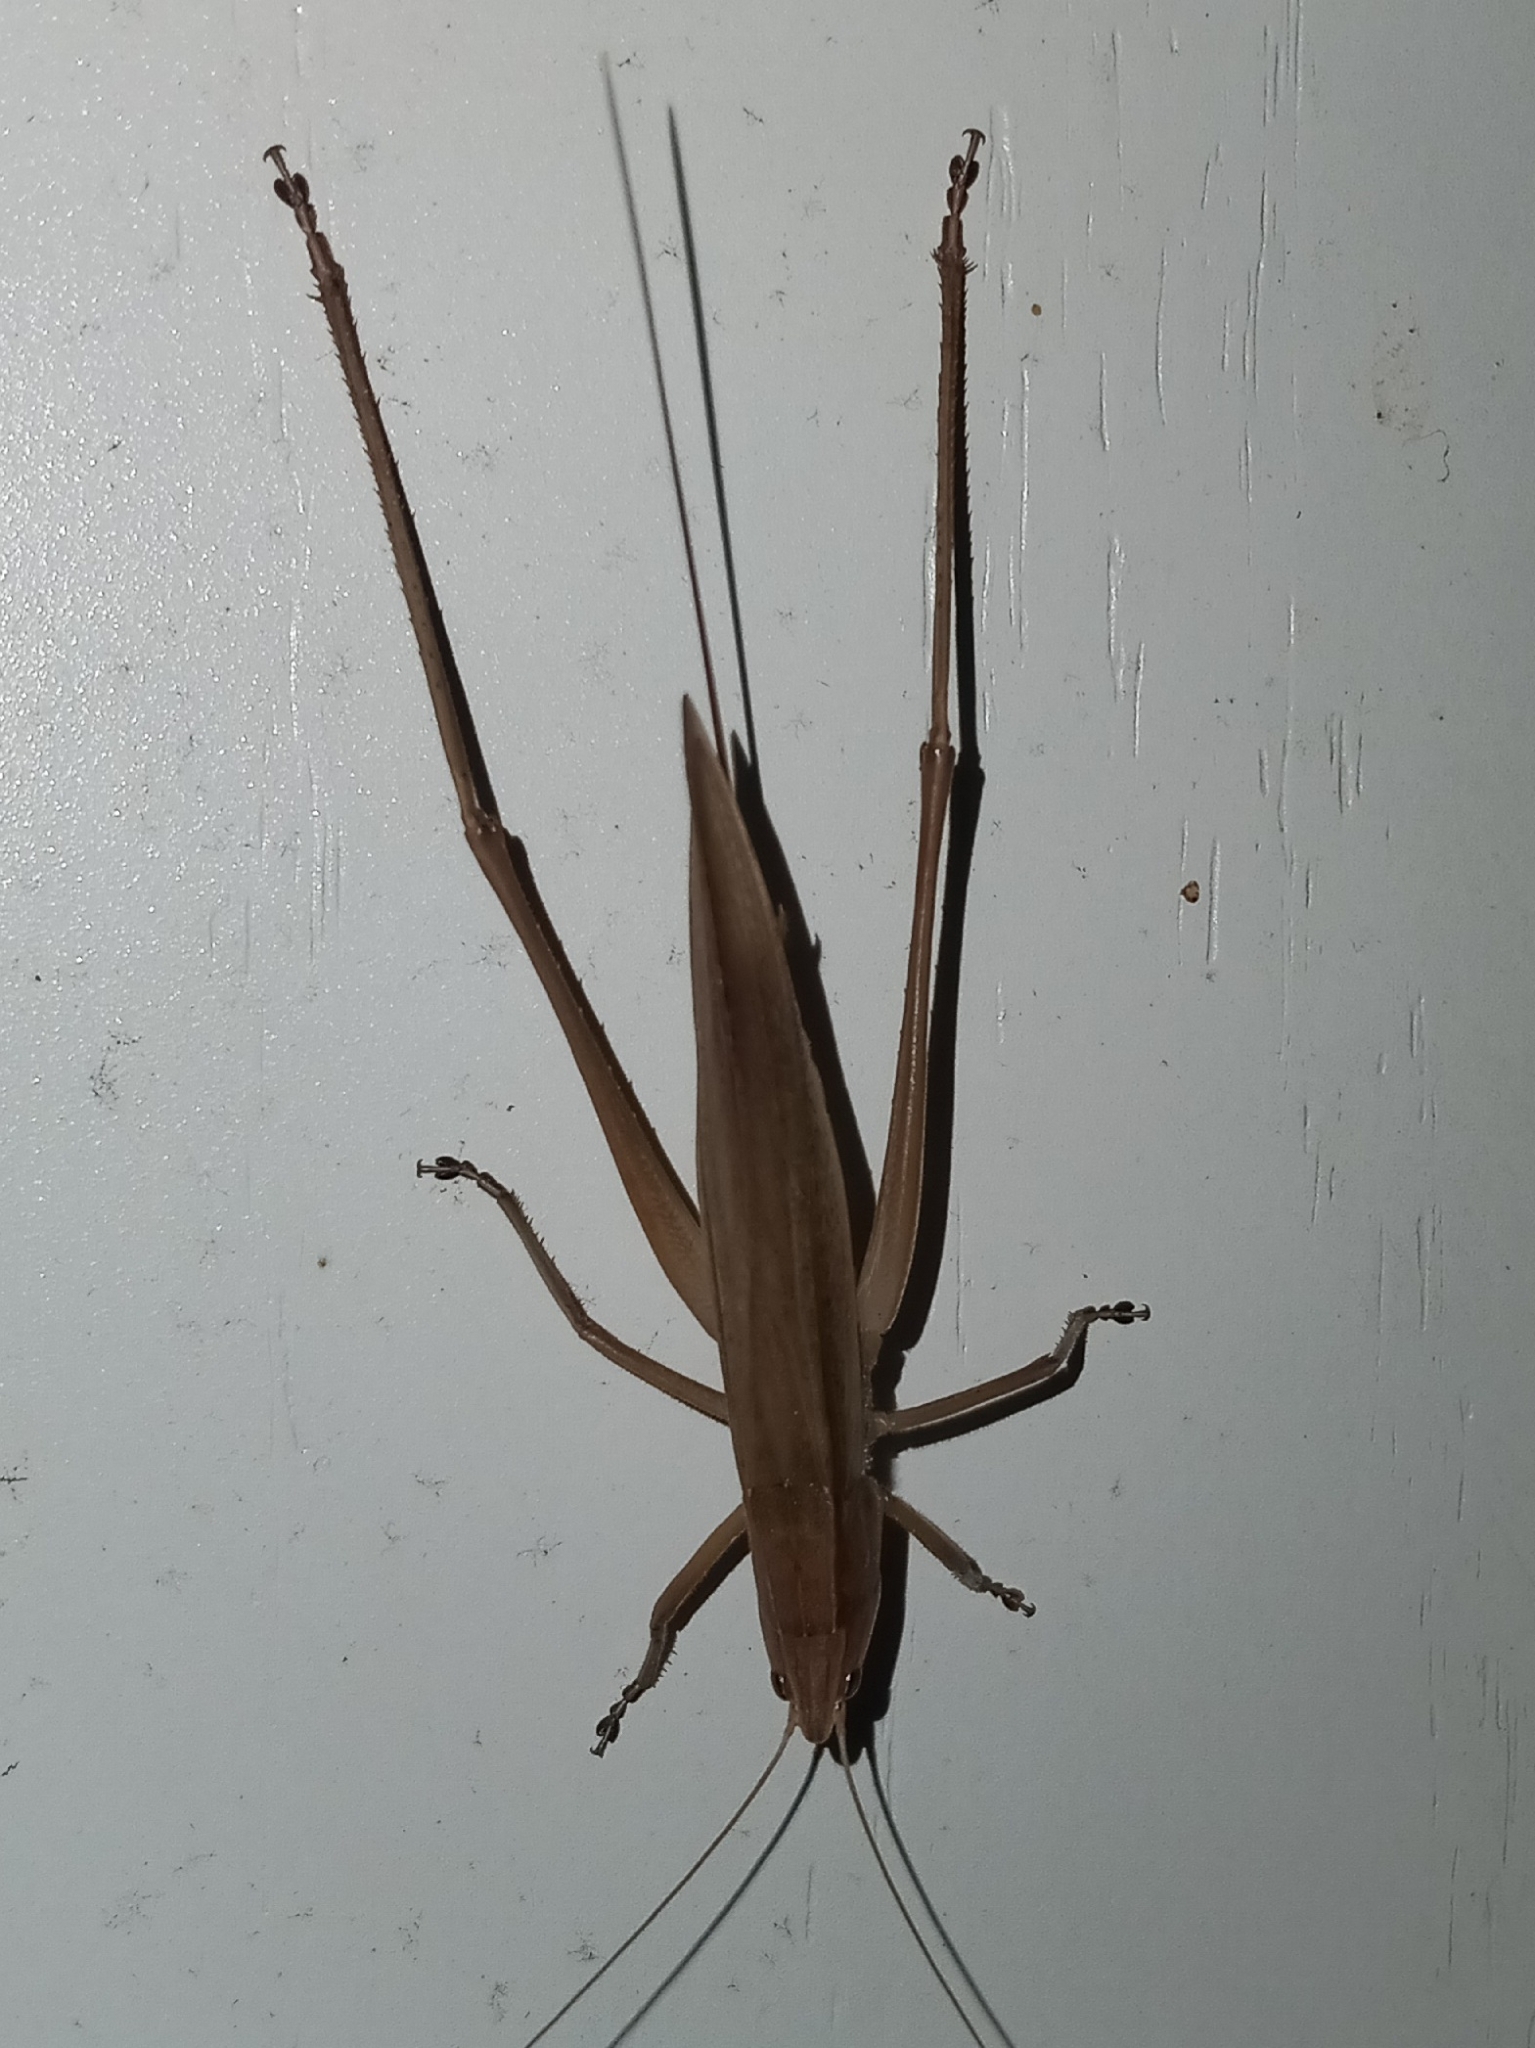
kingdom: Animalia
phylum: Arthropoda
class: Insecta
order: Orthoptera
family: Tettigoniidae
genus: Pyrgocorypha
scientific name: Pyrgocorypha uncinata
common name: Hook-faced conehead
